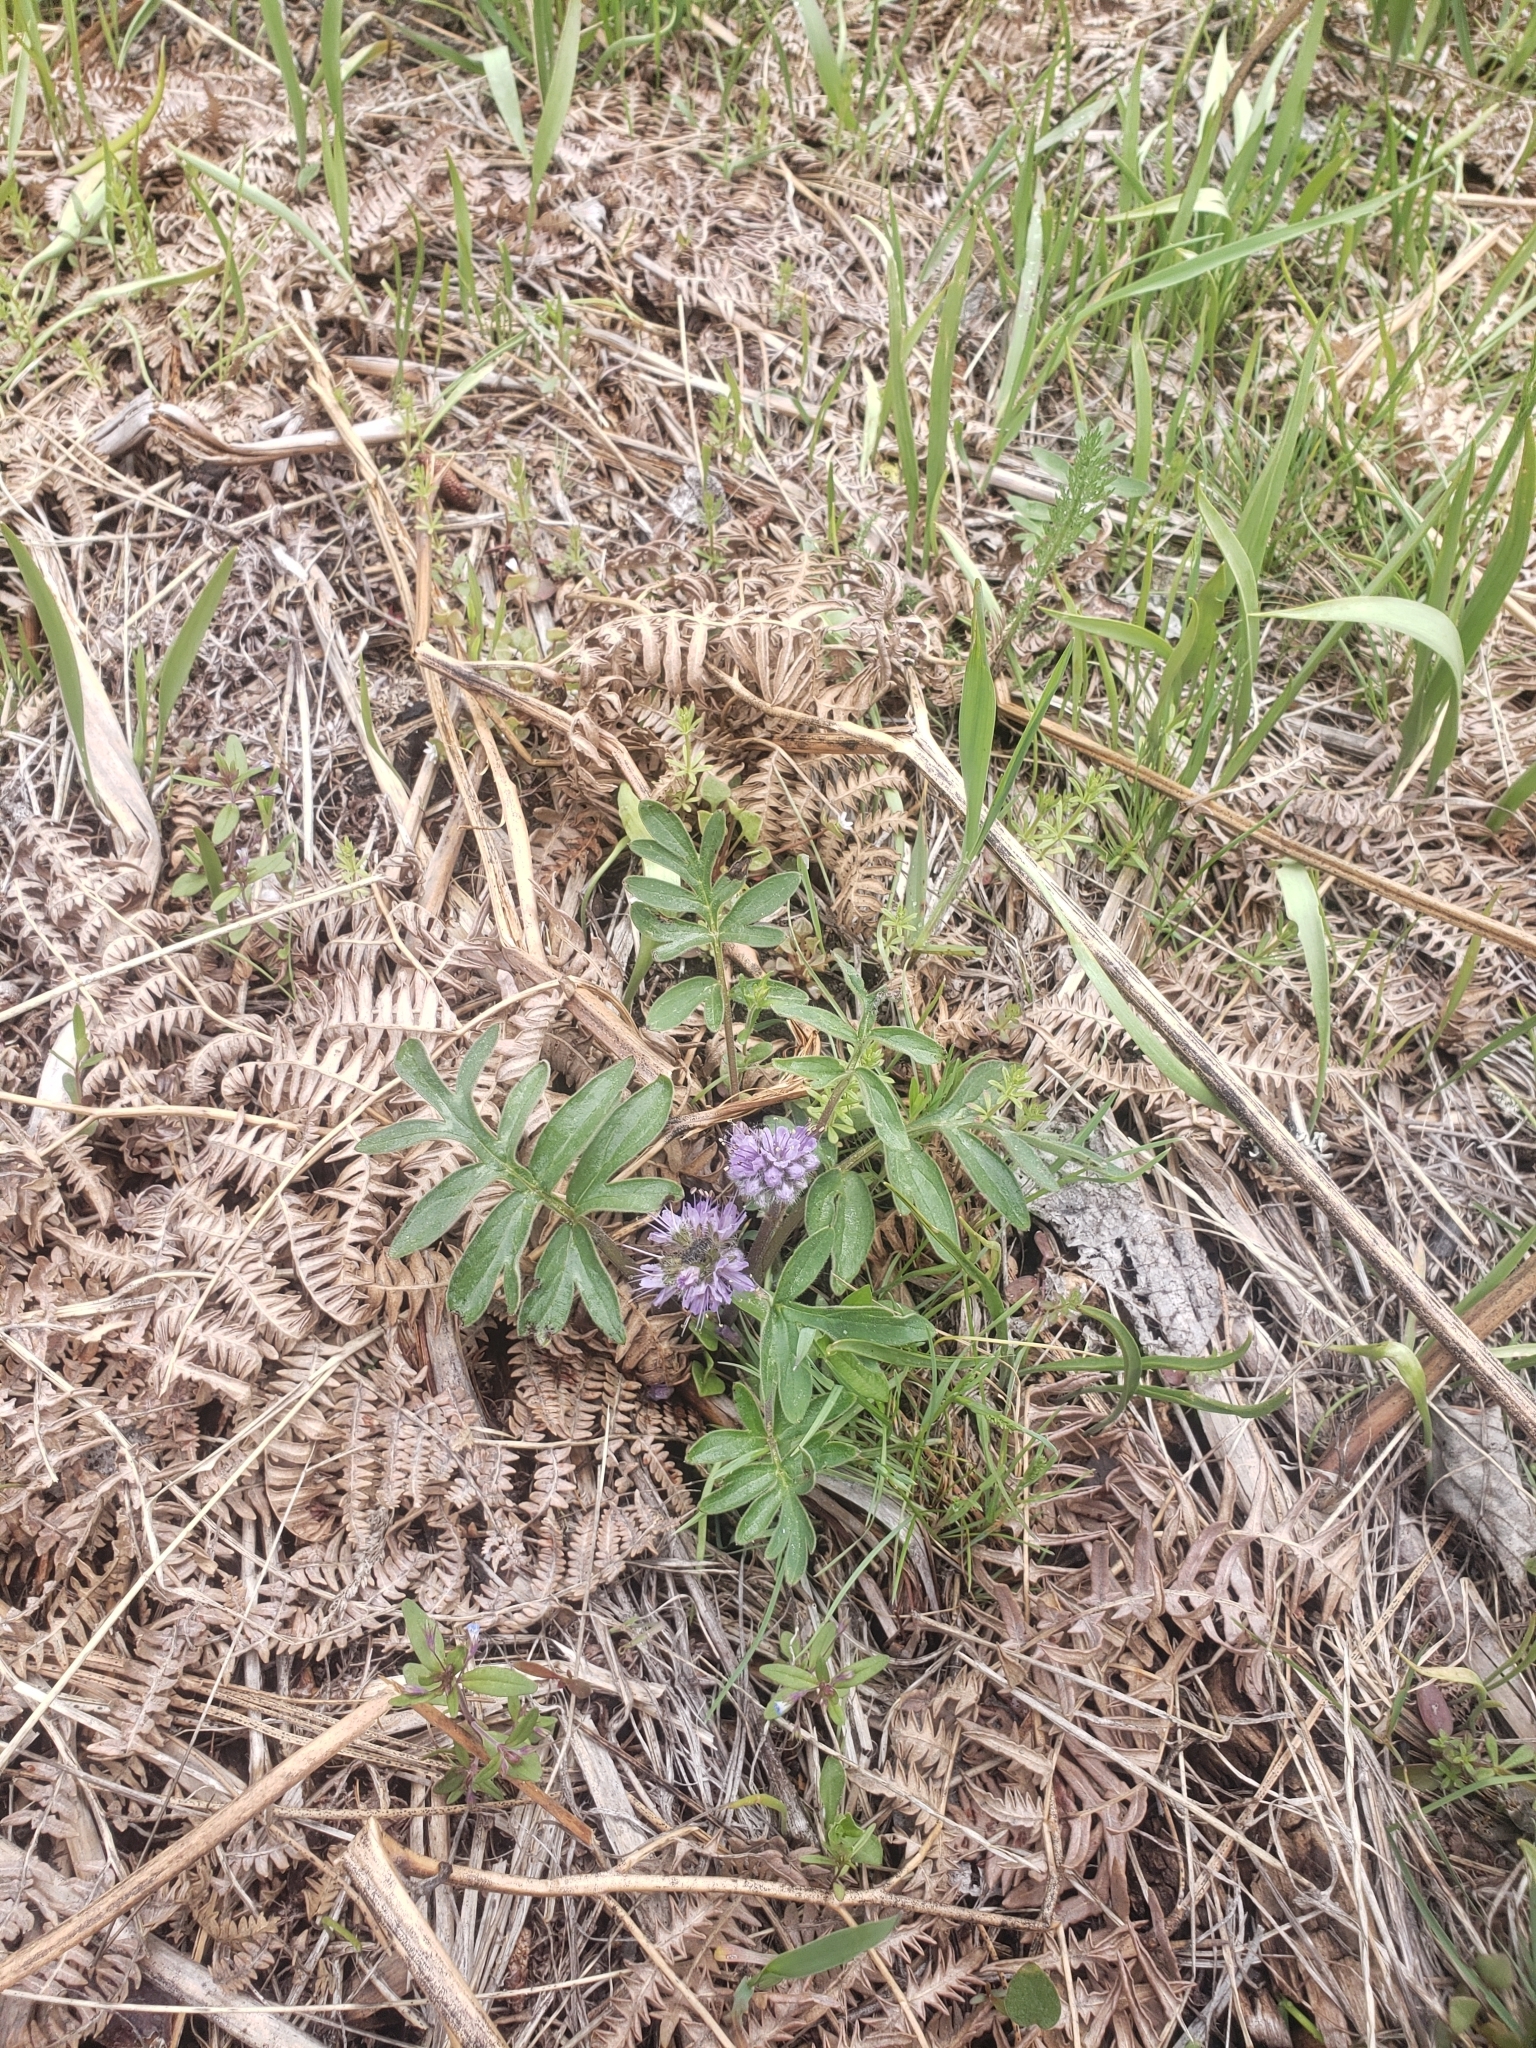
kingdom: Plantae
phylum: Tracheophyta
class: Magnoliopsida
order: Boraginales
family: Hydrophyllaceae
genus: Hydrophyllum
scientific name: Hydrophyllum capitatum
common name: Woollen-breeches
